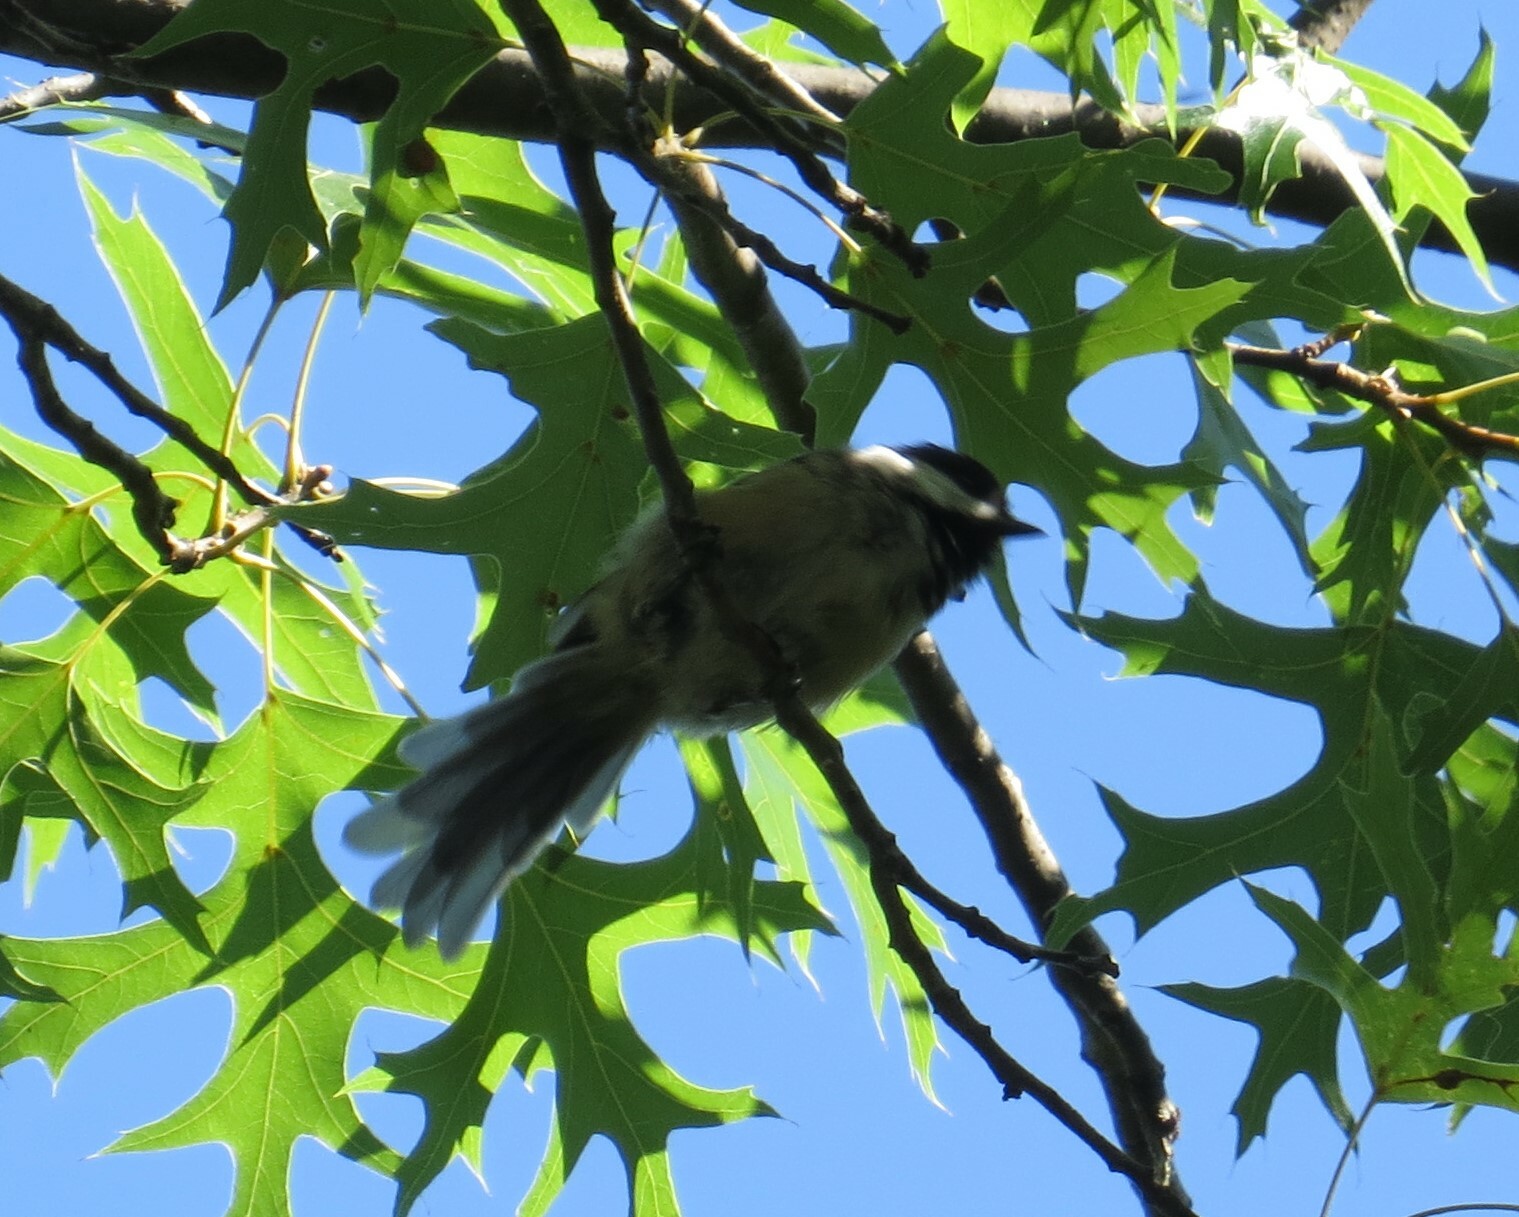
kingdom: Animalia
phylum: Chordata
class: Aves
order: Passeriformes
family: Paridae
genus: Poecile
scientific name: Poecile atricapillus
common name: Black-capped chickadee
